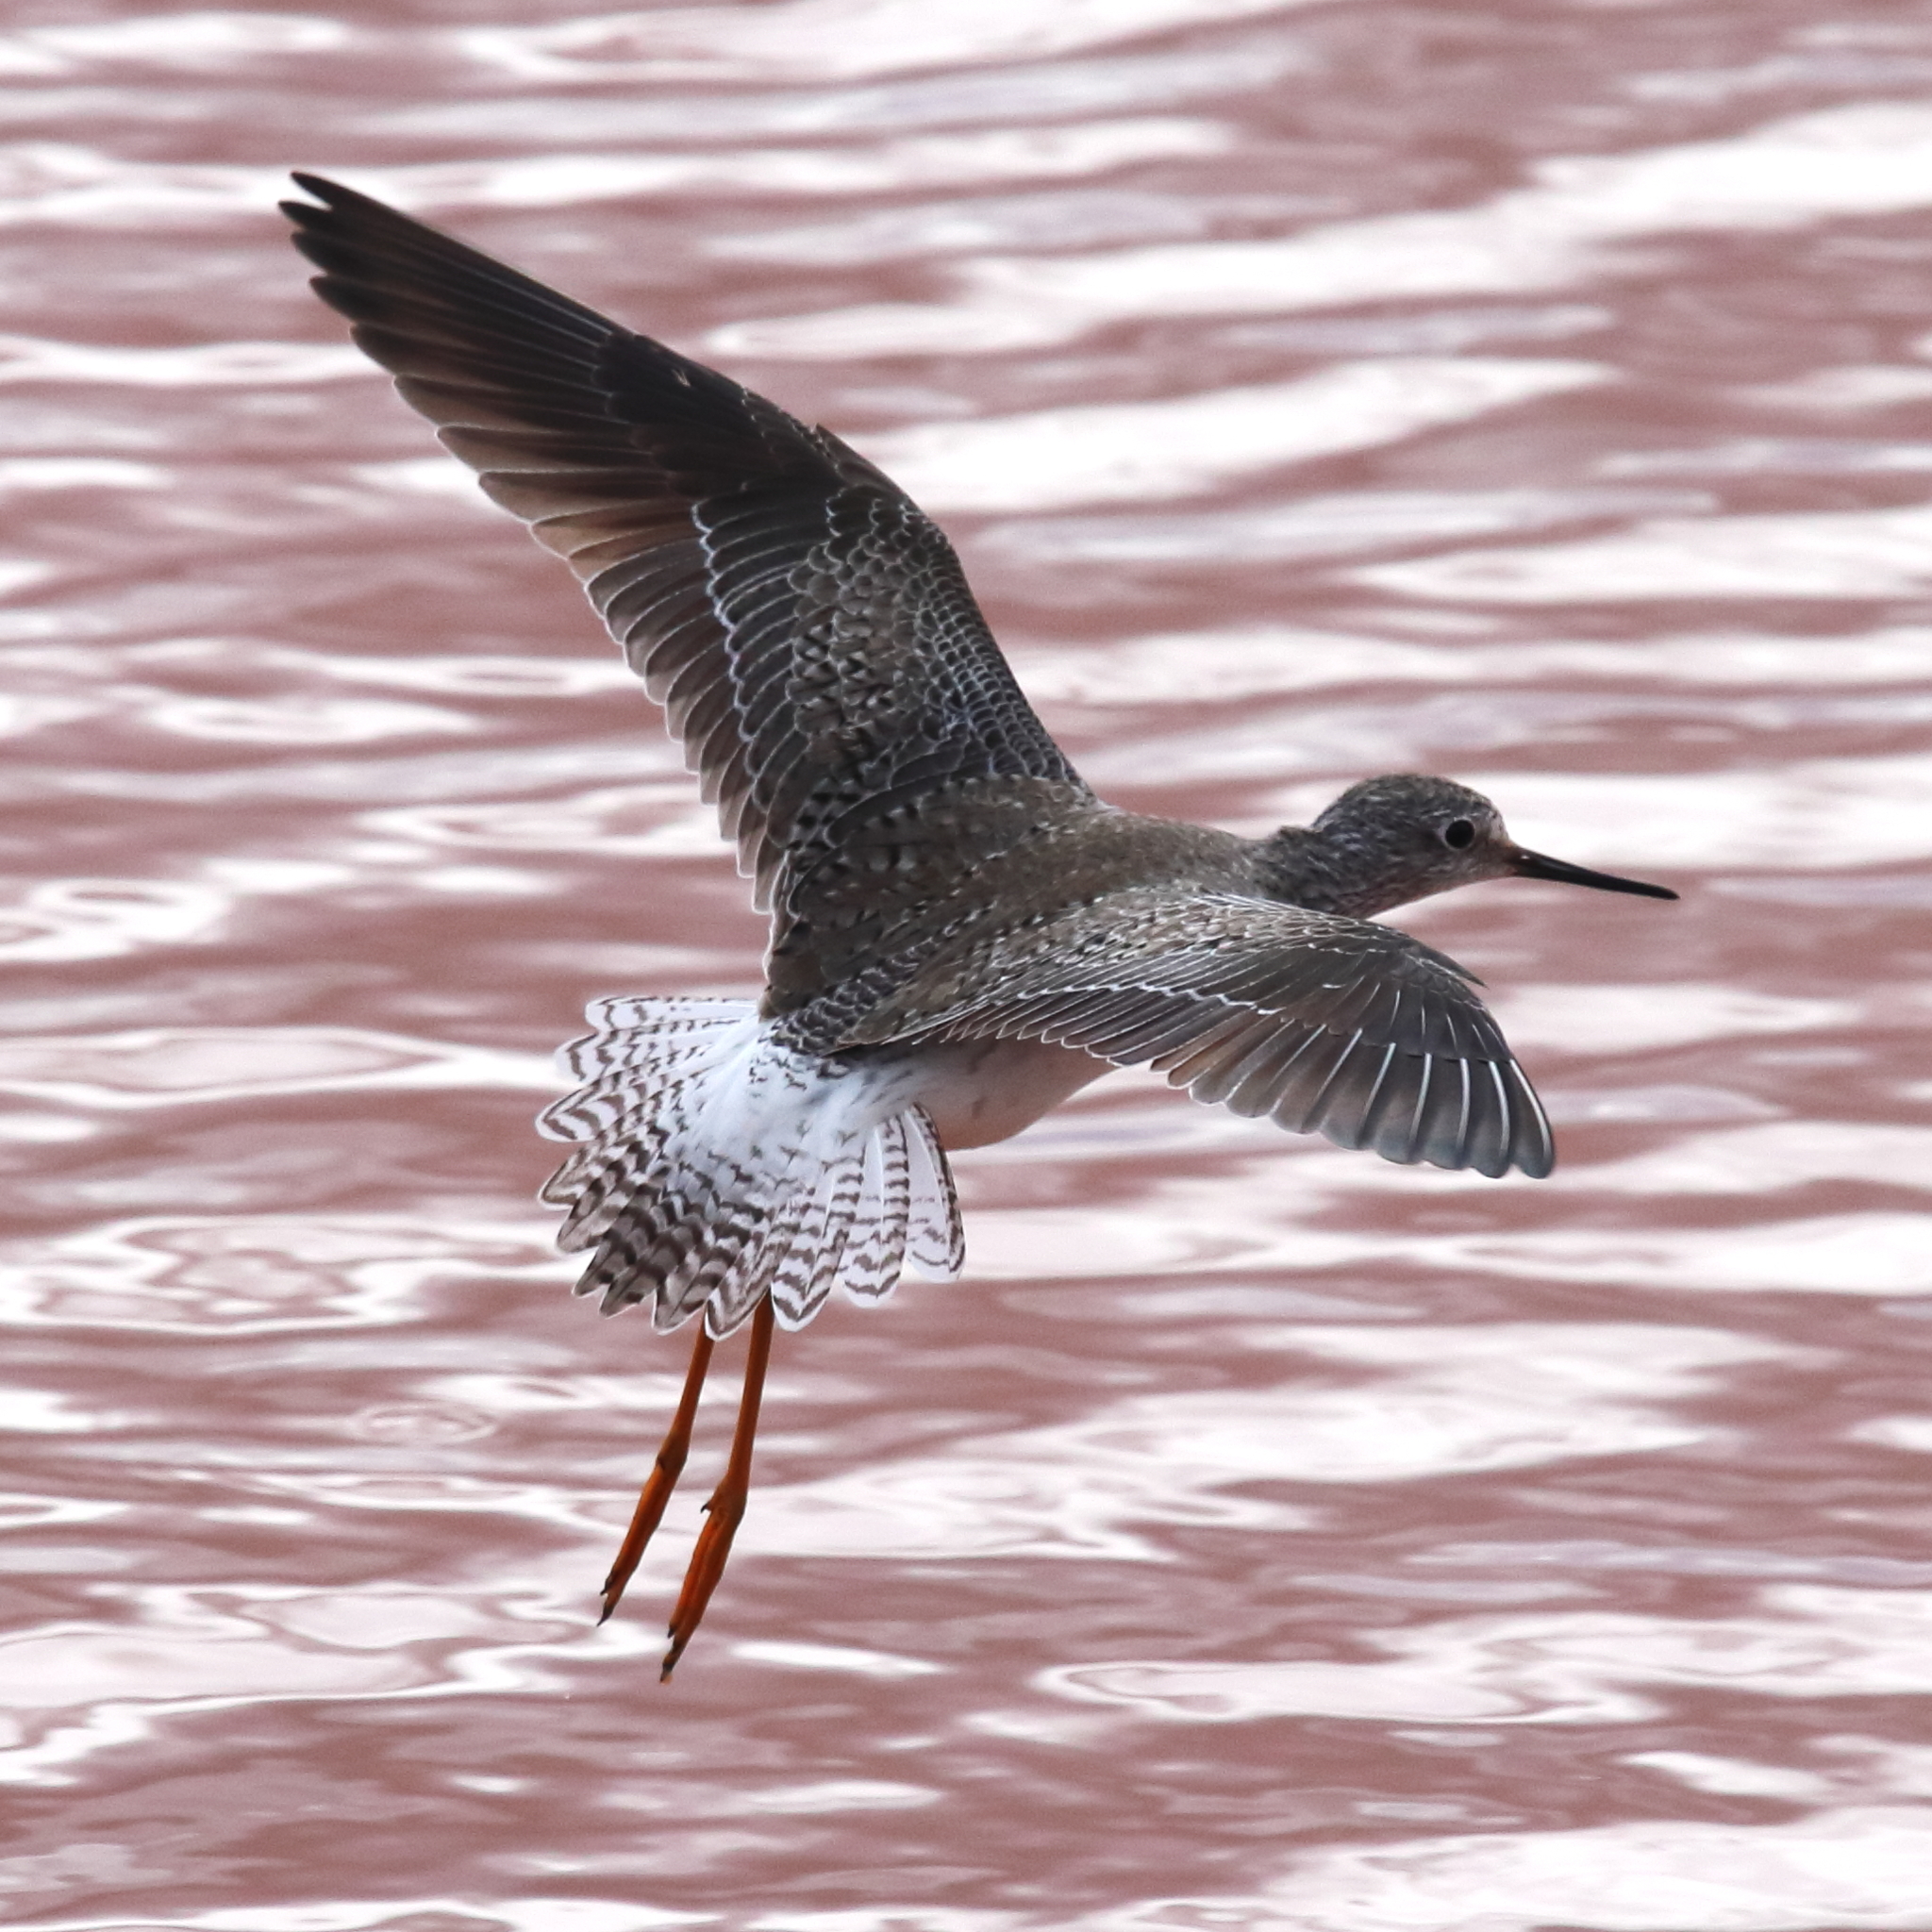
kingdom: Animalia
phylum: Chordata
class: Aves
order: Charadriiformes
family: Scolopacidae
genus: Tringa
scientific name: Tringa flavipes
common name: Lesser yellowlegs
